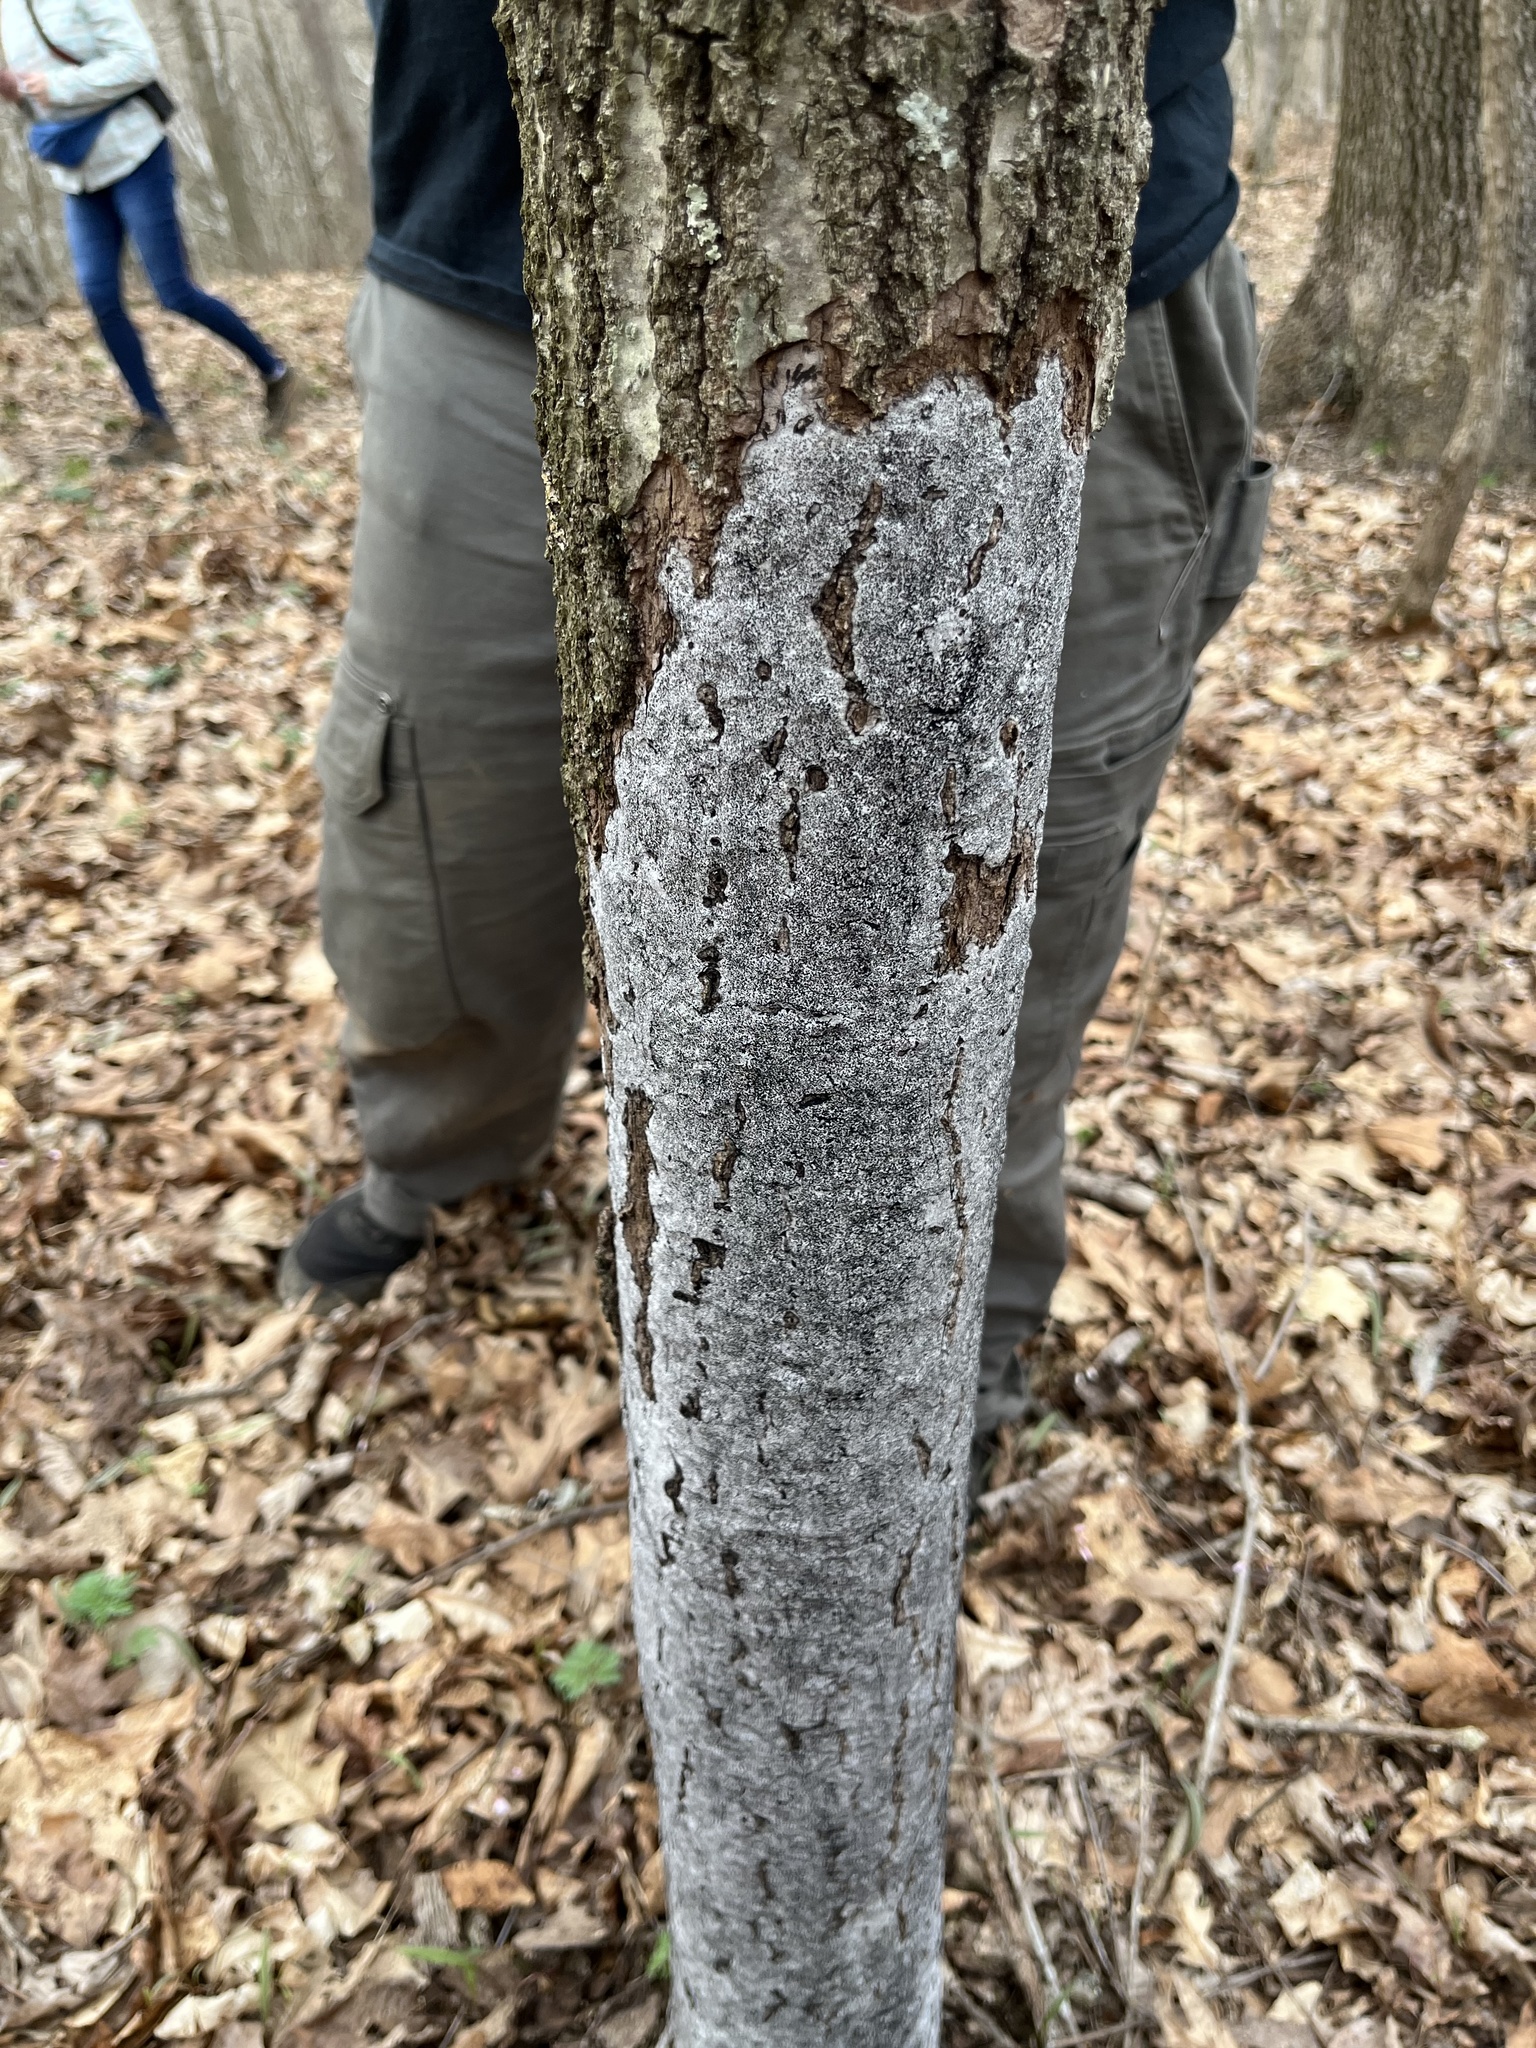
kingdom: Fungi
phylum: Ascomycota
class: Sordariomycetes
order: Xylariales
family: Graphostromataceae
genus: Biscogniauxia
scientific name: Biscogniauxia atropunctata
